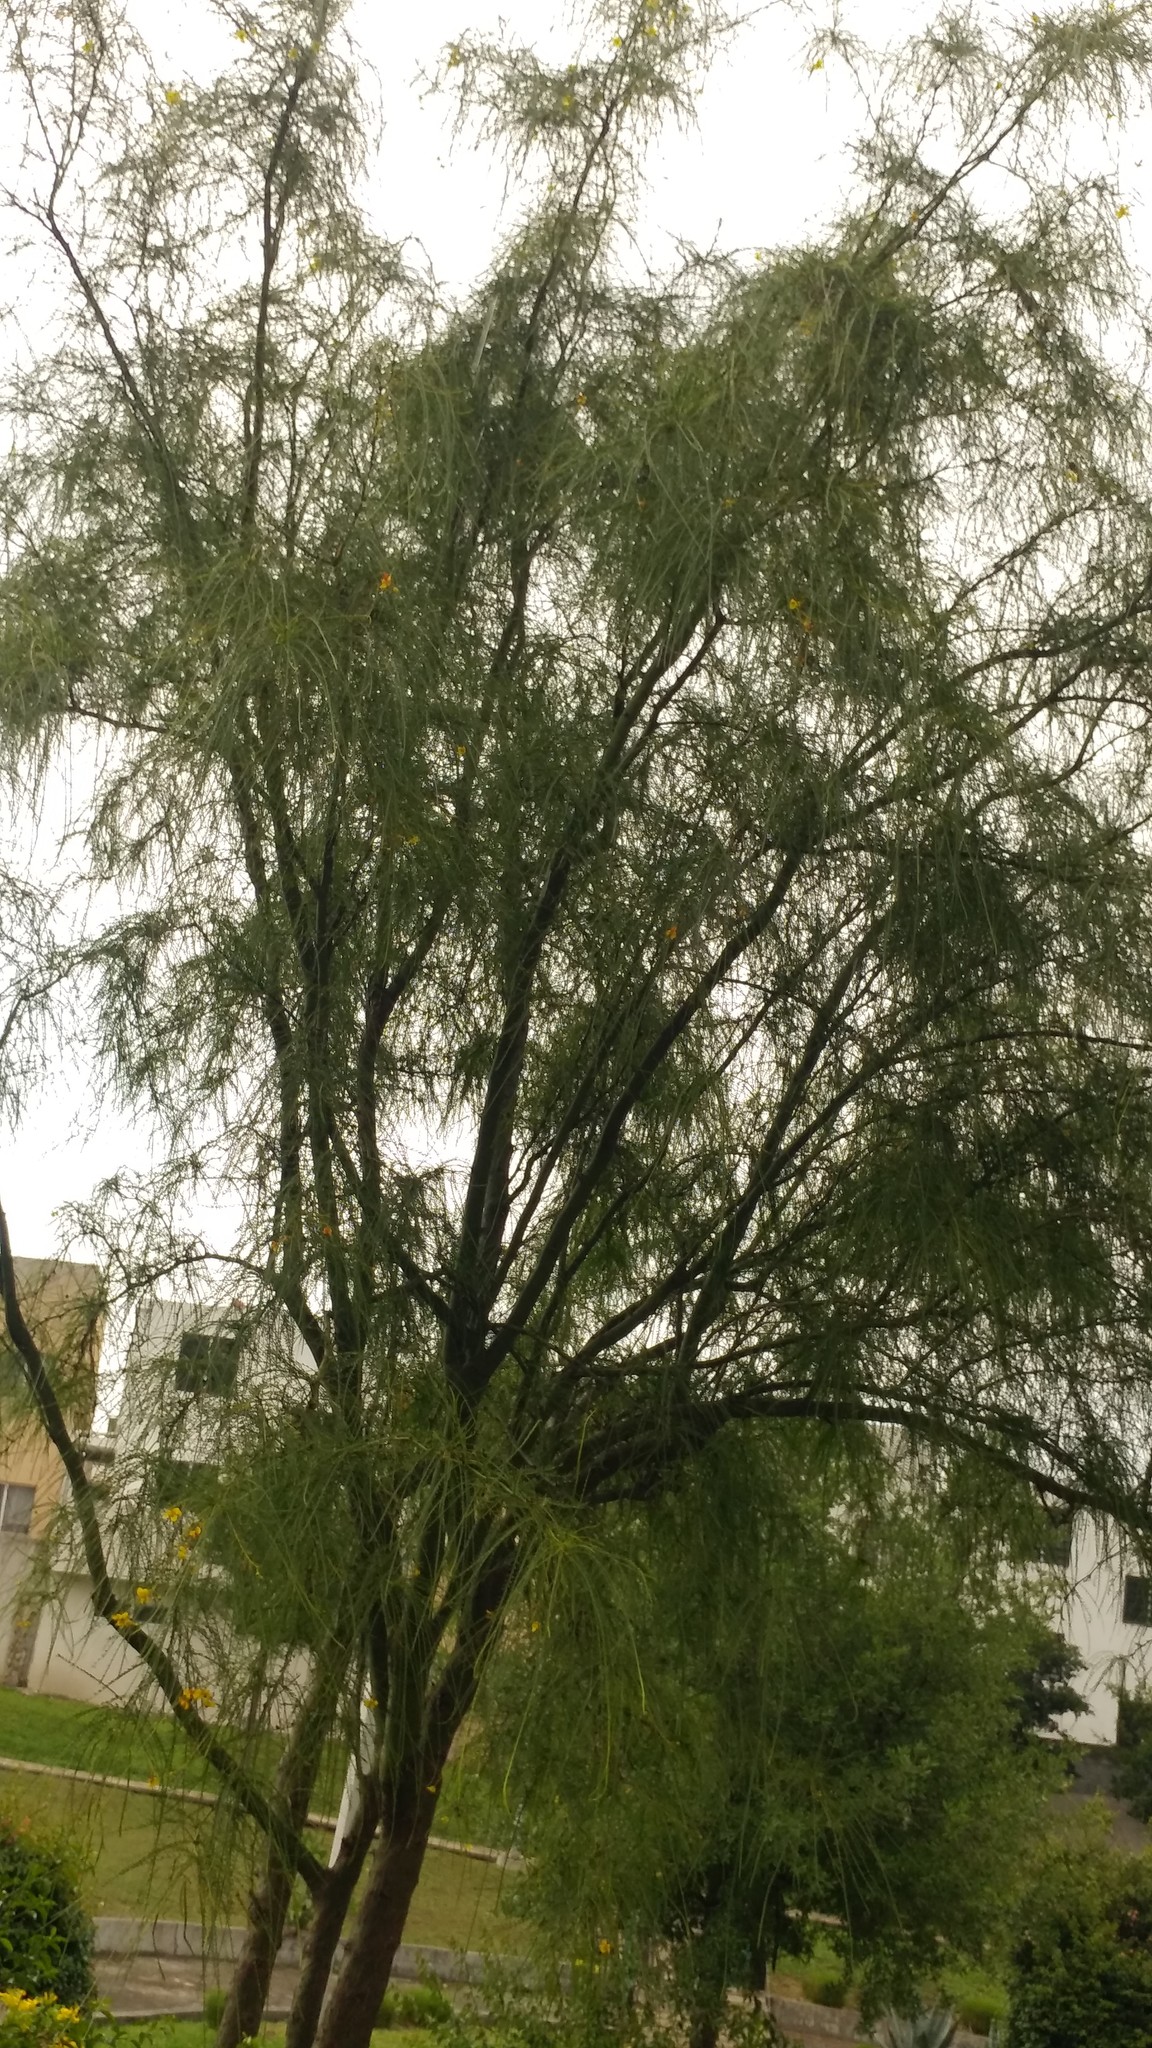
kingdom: Plantae
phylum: Tracheophyta
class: Magnoliopsida
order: Fabales
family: Fabaceae
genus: Parkinsonia
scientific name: Parkinsonia aculeata
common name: Jerusalem thorn
